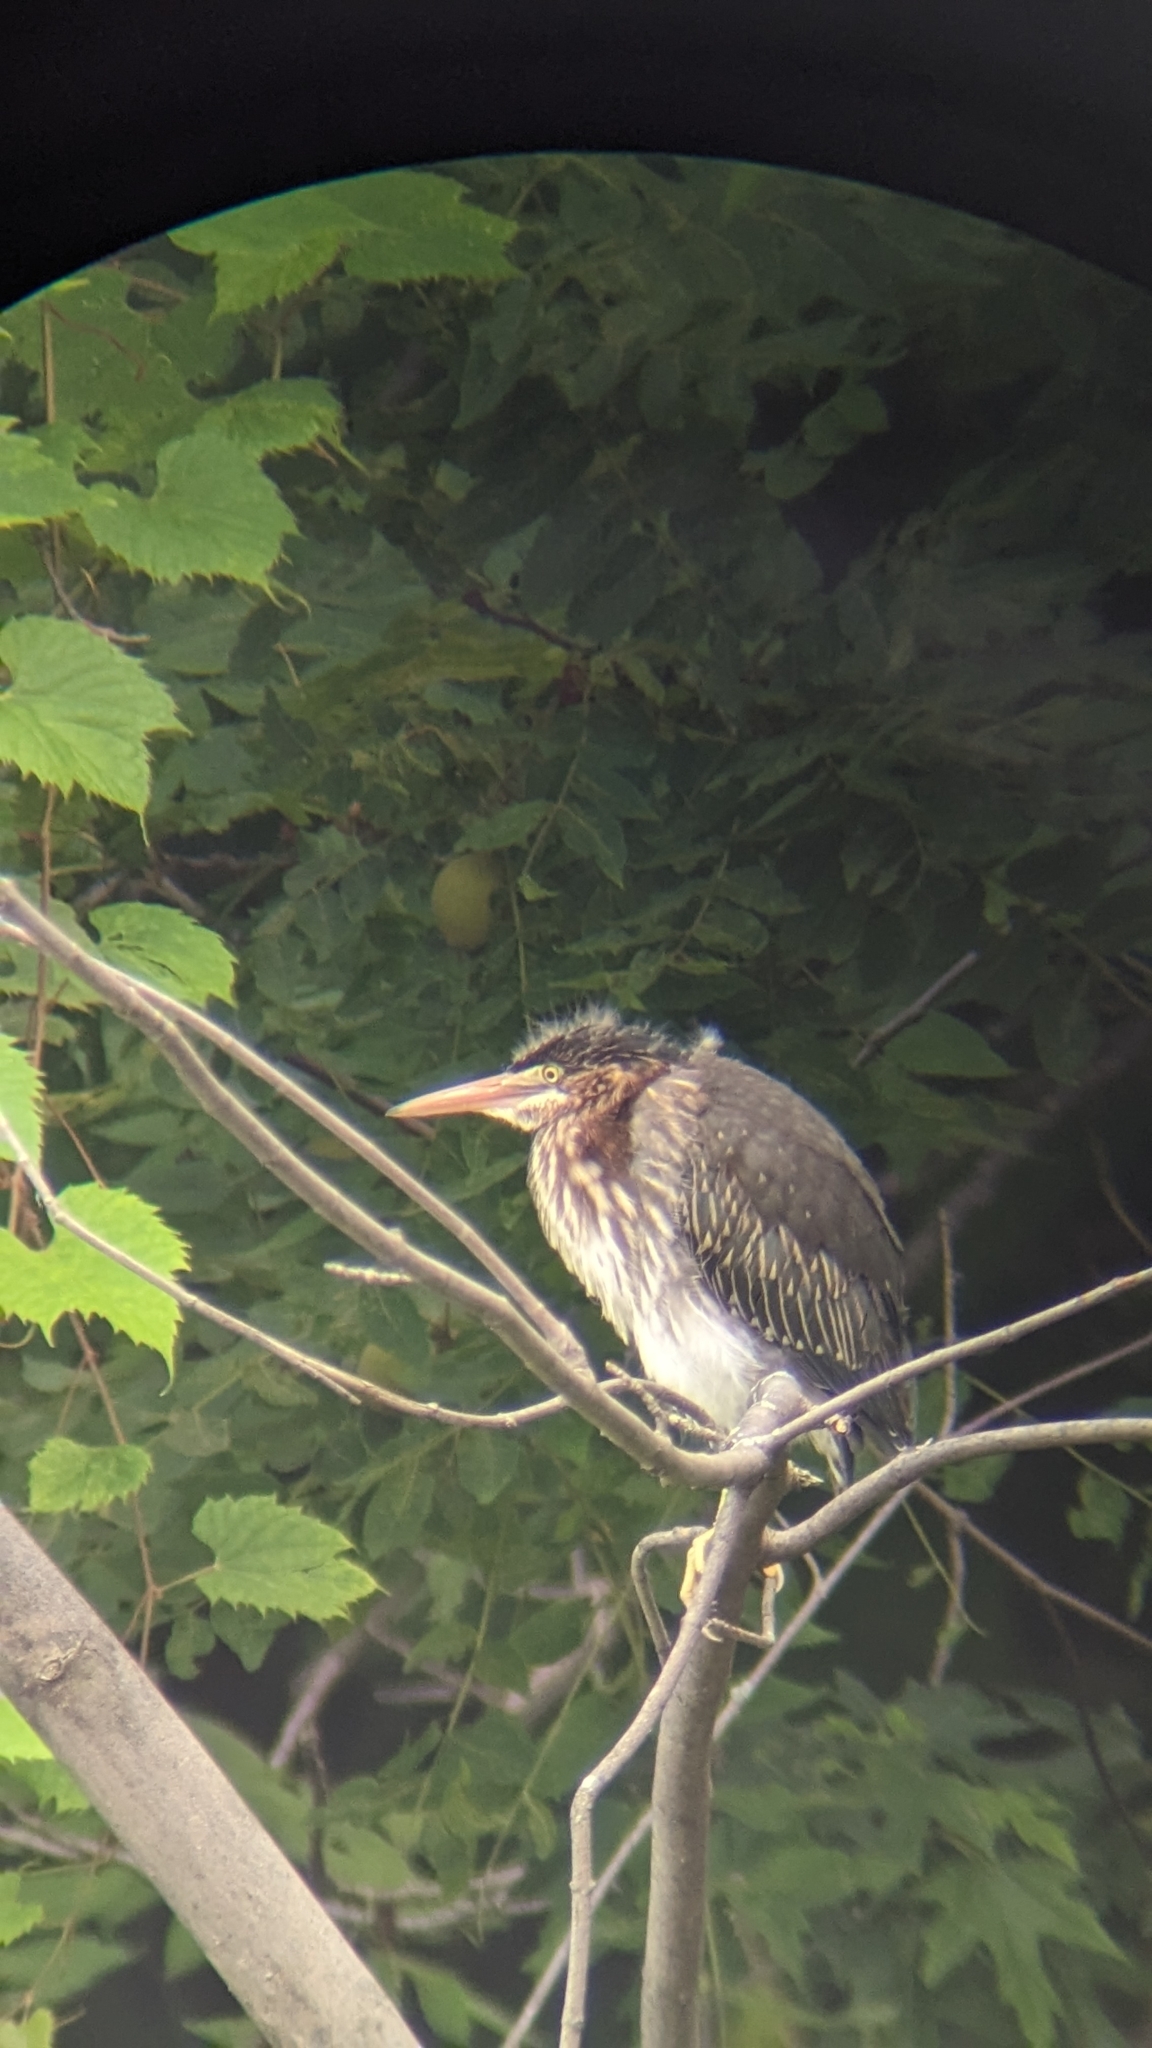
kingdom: Animalia
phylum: Chordata
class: Aves
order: Pelecaniformes
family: Ardeidae
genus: Butorides
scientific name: Butorides virescens
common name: Green heron
